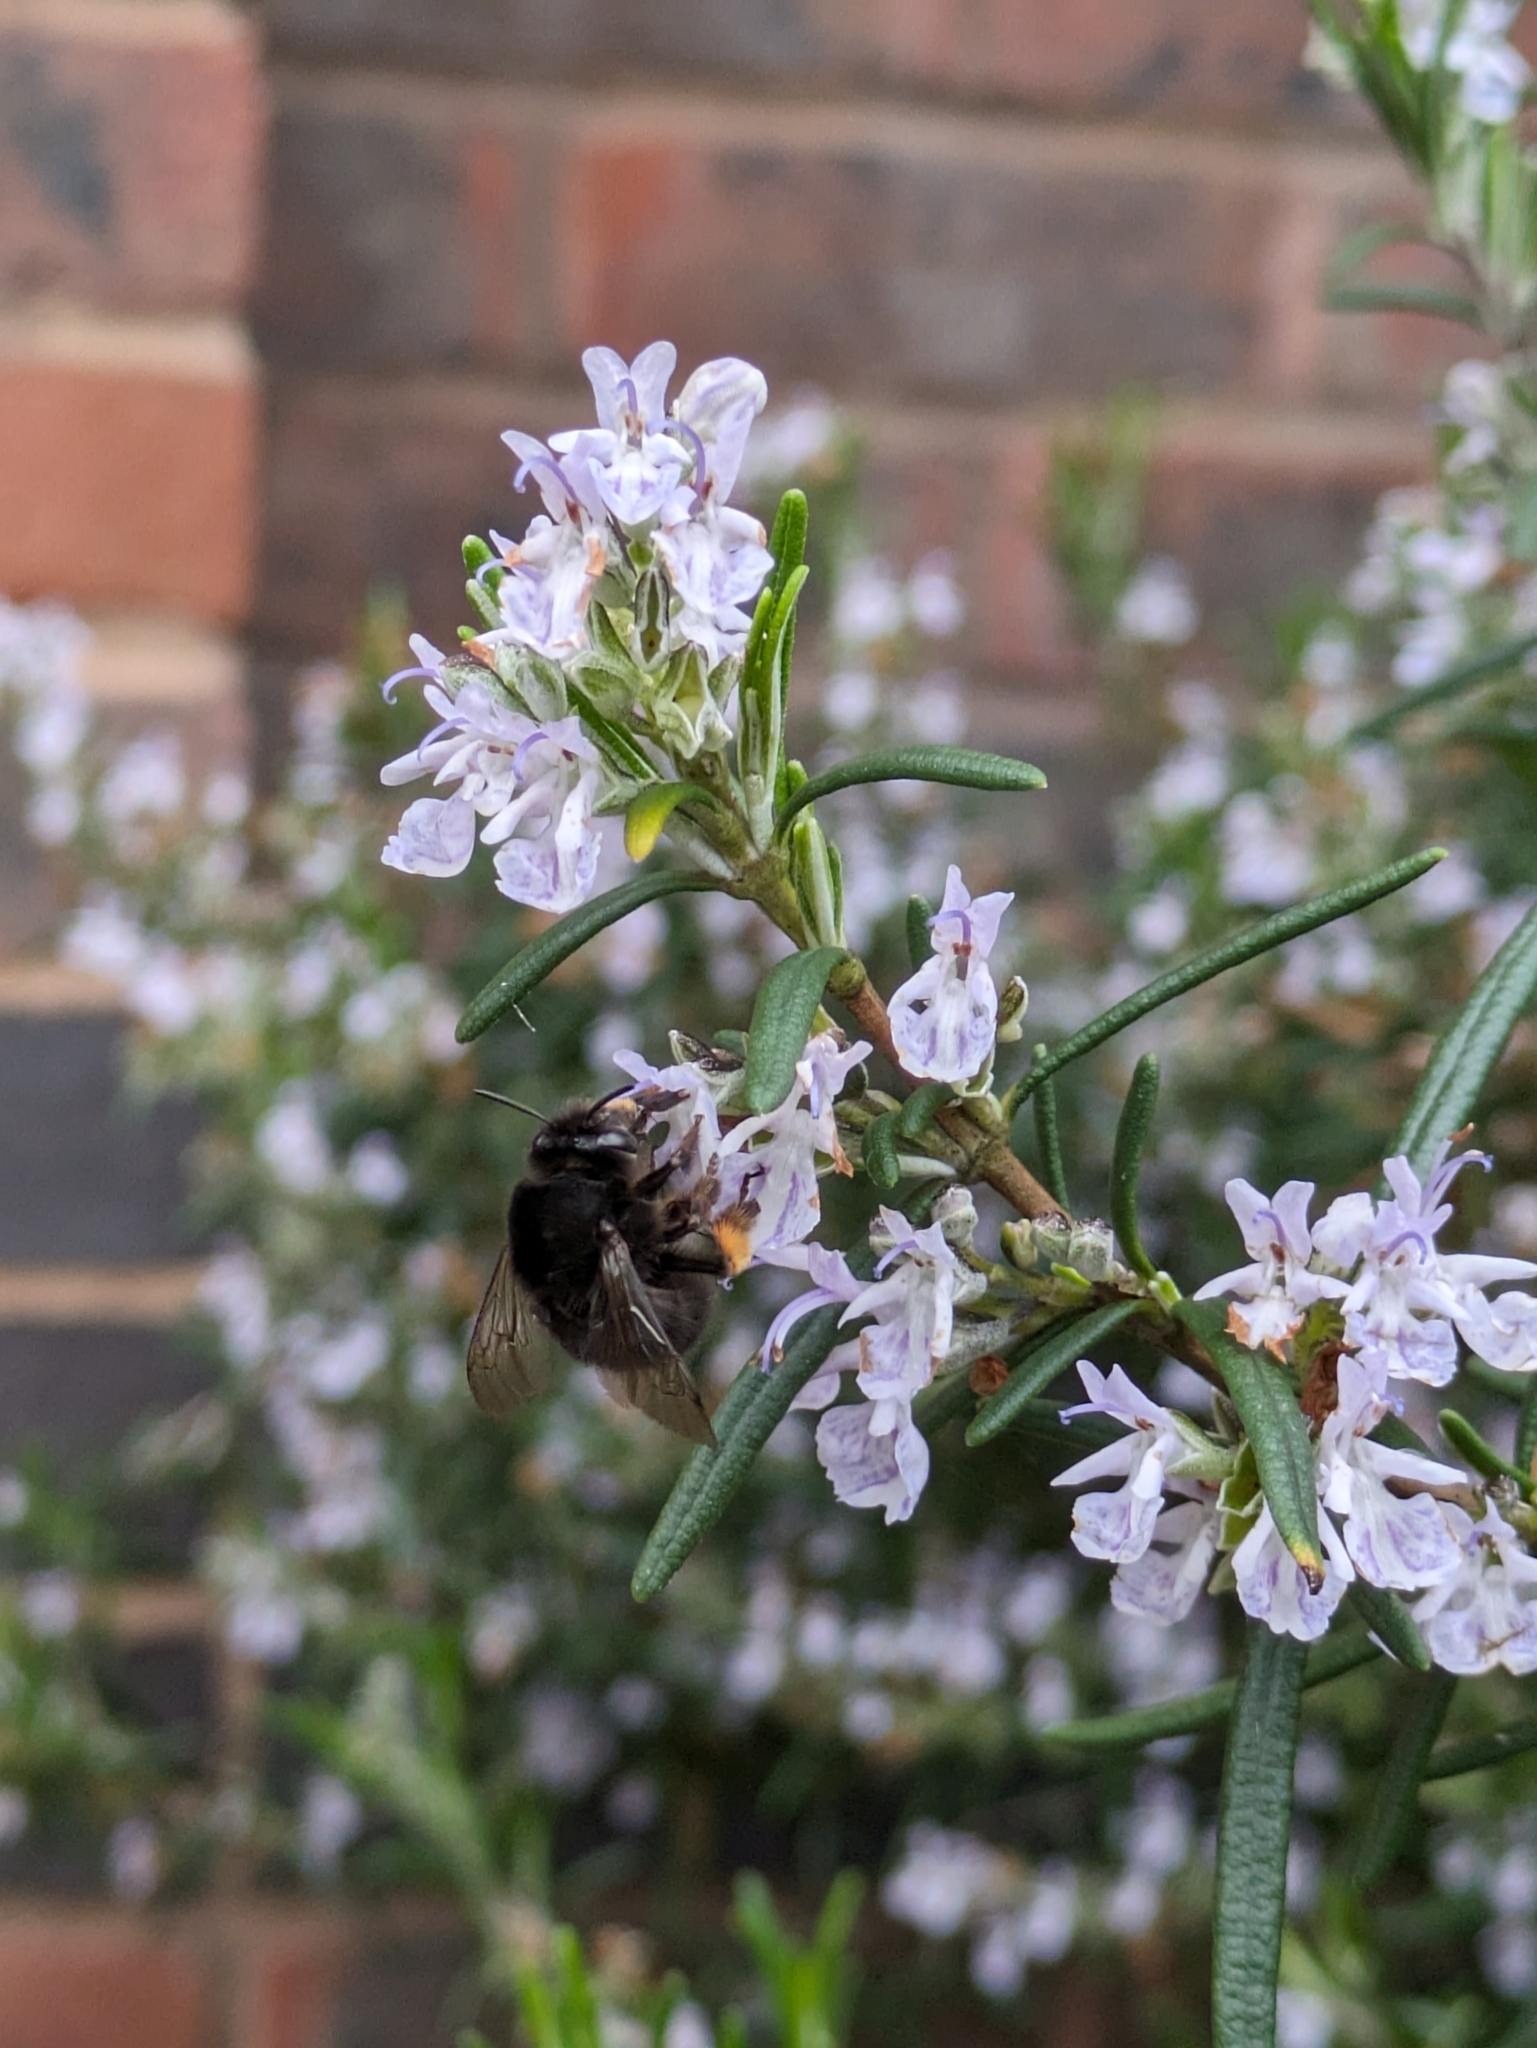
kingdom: Animalia
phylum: Arthropoda
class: Insecta
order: Hymenoptera
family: Apidae
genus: Anthophora
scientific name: Anthophora plumipes
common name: Hairy-footed flower bee
